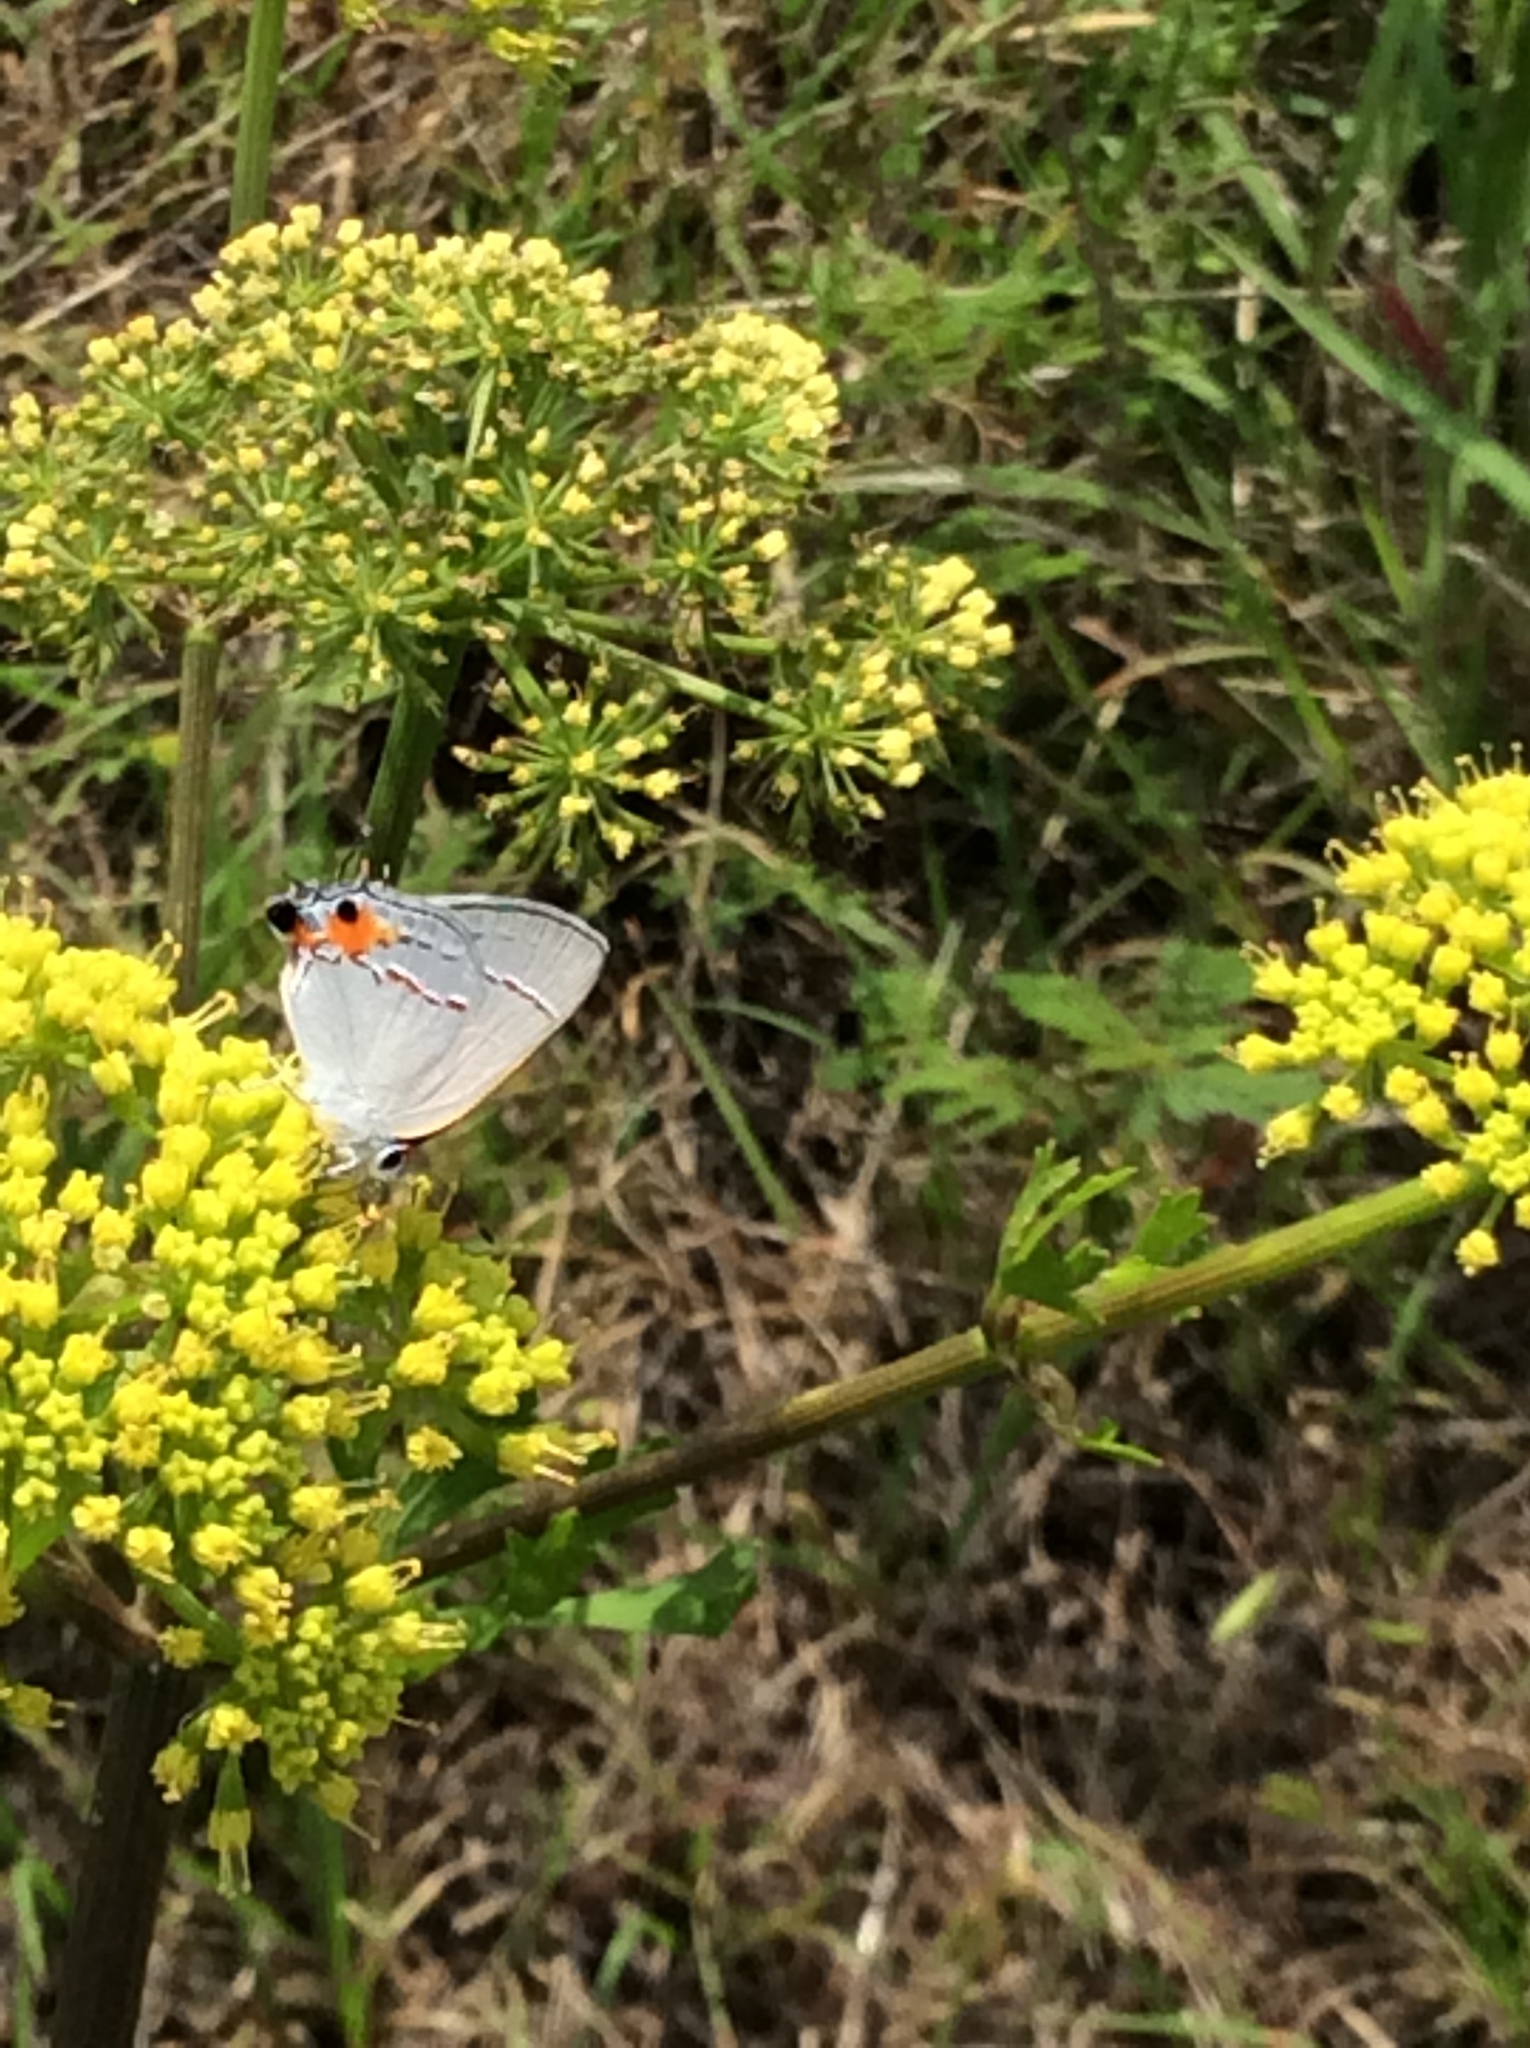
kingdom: Animalia
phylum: Arthropoda
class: Insecta
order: Lepidoptera
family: Lycaenidae
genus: Strymon
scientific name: Strymon melinus
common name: Gray hairstreak
